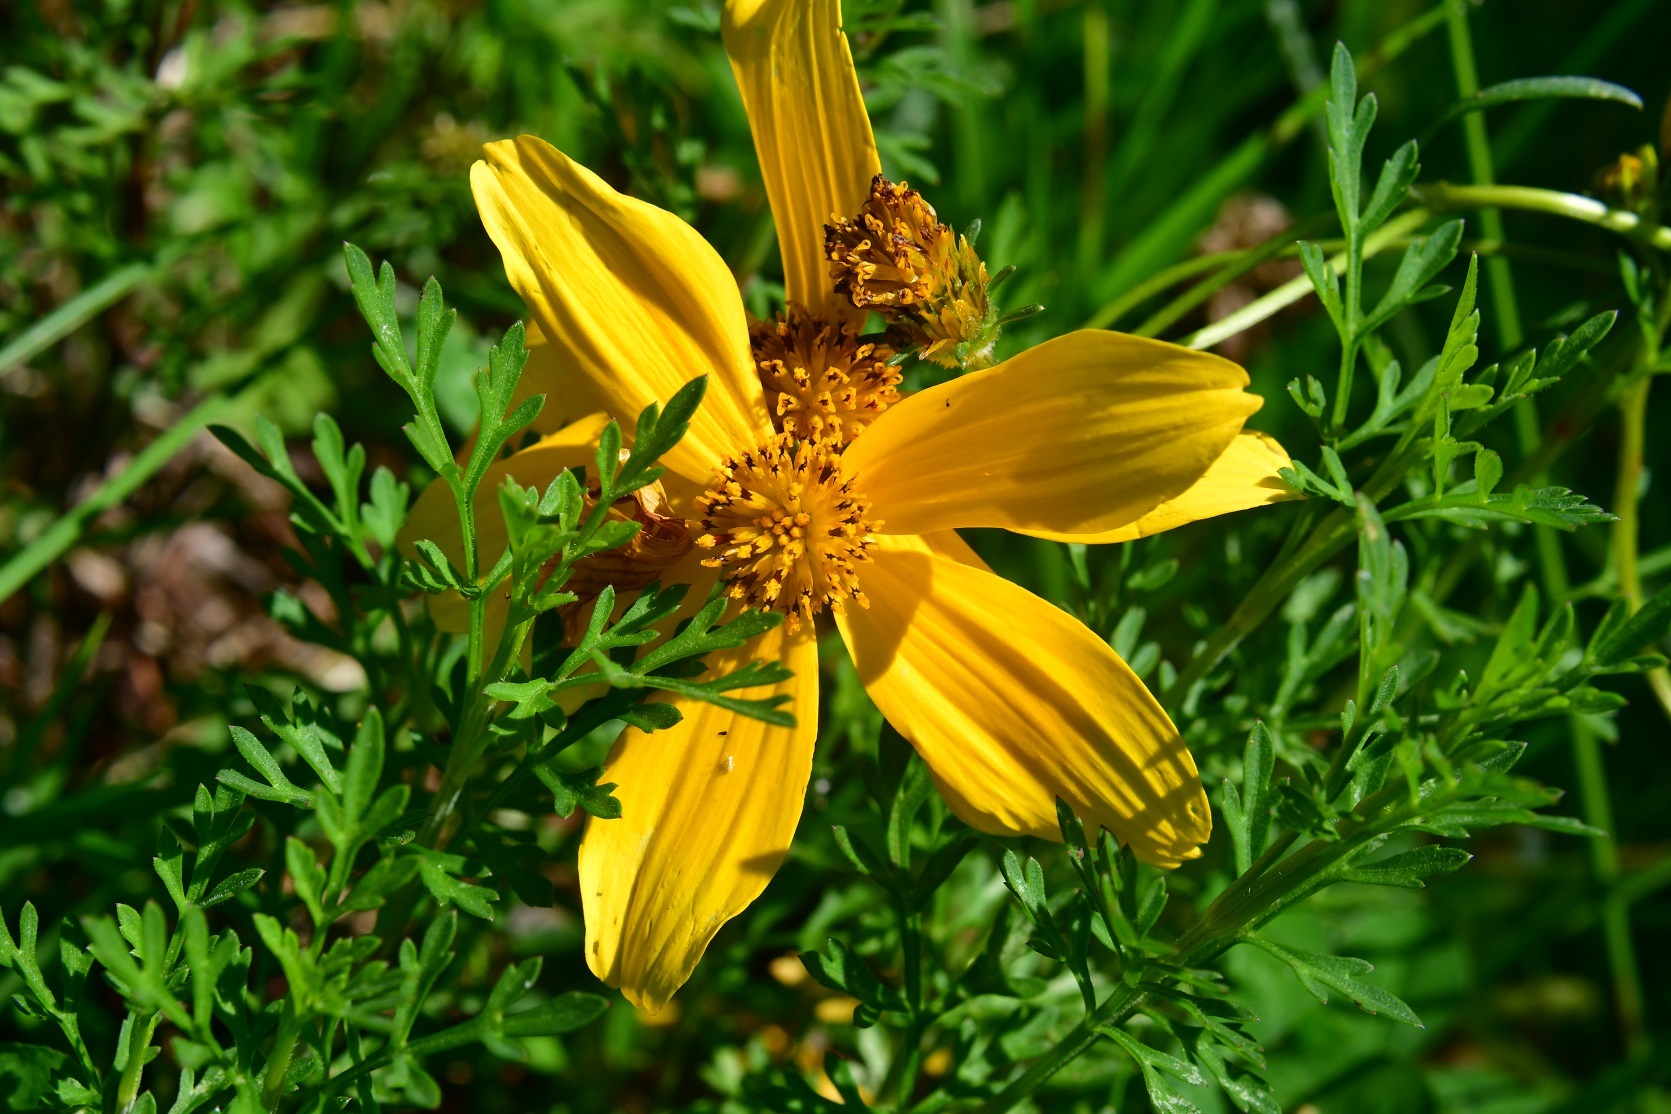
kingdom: Plantae
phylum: Tracheophyta
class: Magnoliopsida
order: Asterales
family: Asteraceae
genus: Bidens
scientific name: Bidens triplinervia
